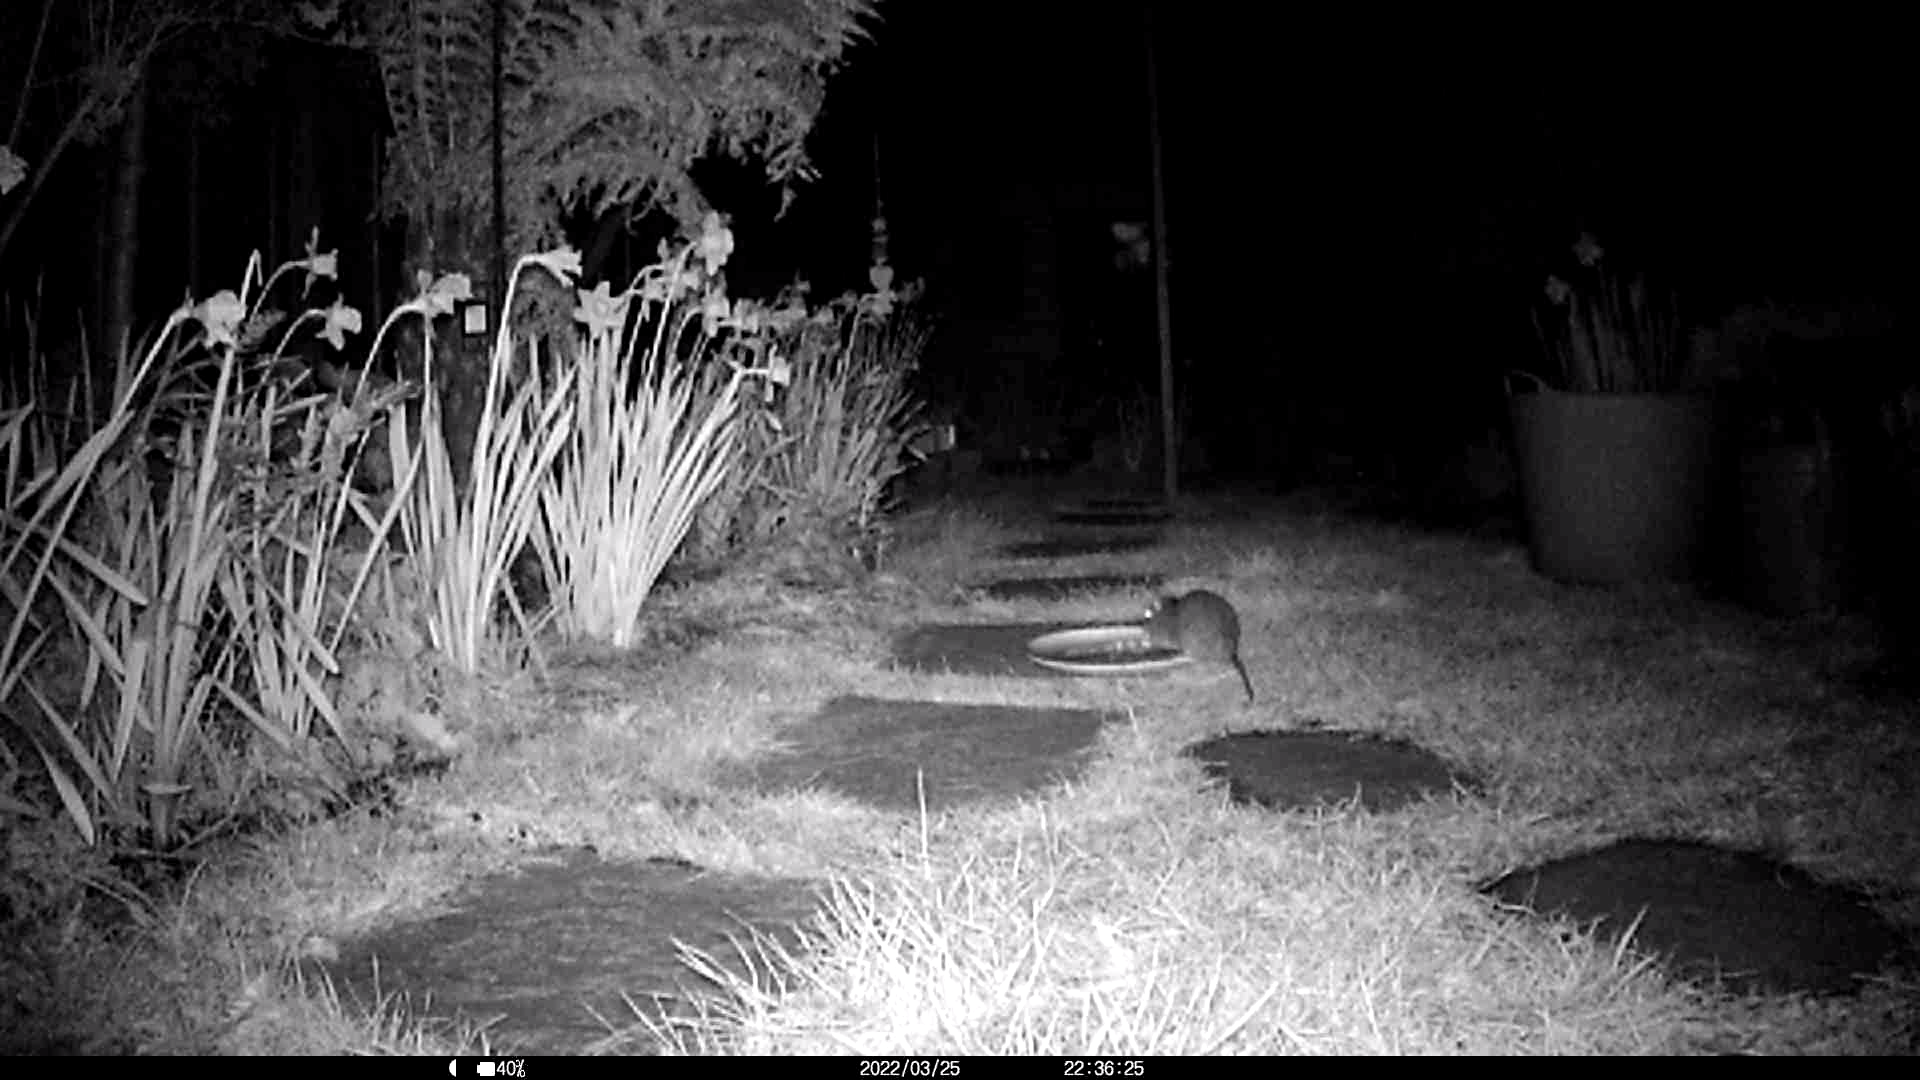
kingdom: Animalia
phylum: Chordata
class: Mammalia
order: Rodentia
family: Muridae
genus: Rattus
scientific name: Rattus norvegicus
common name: Brown rat
